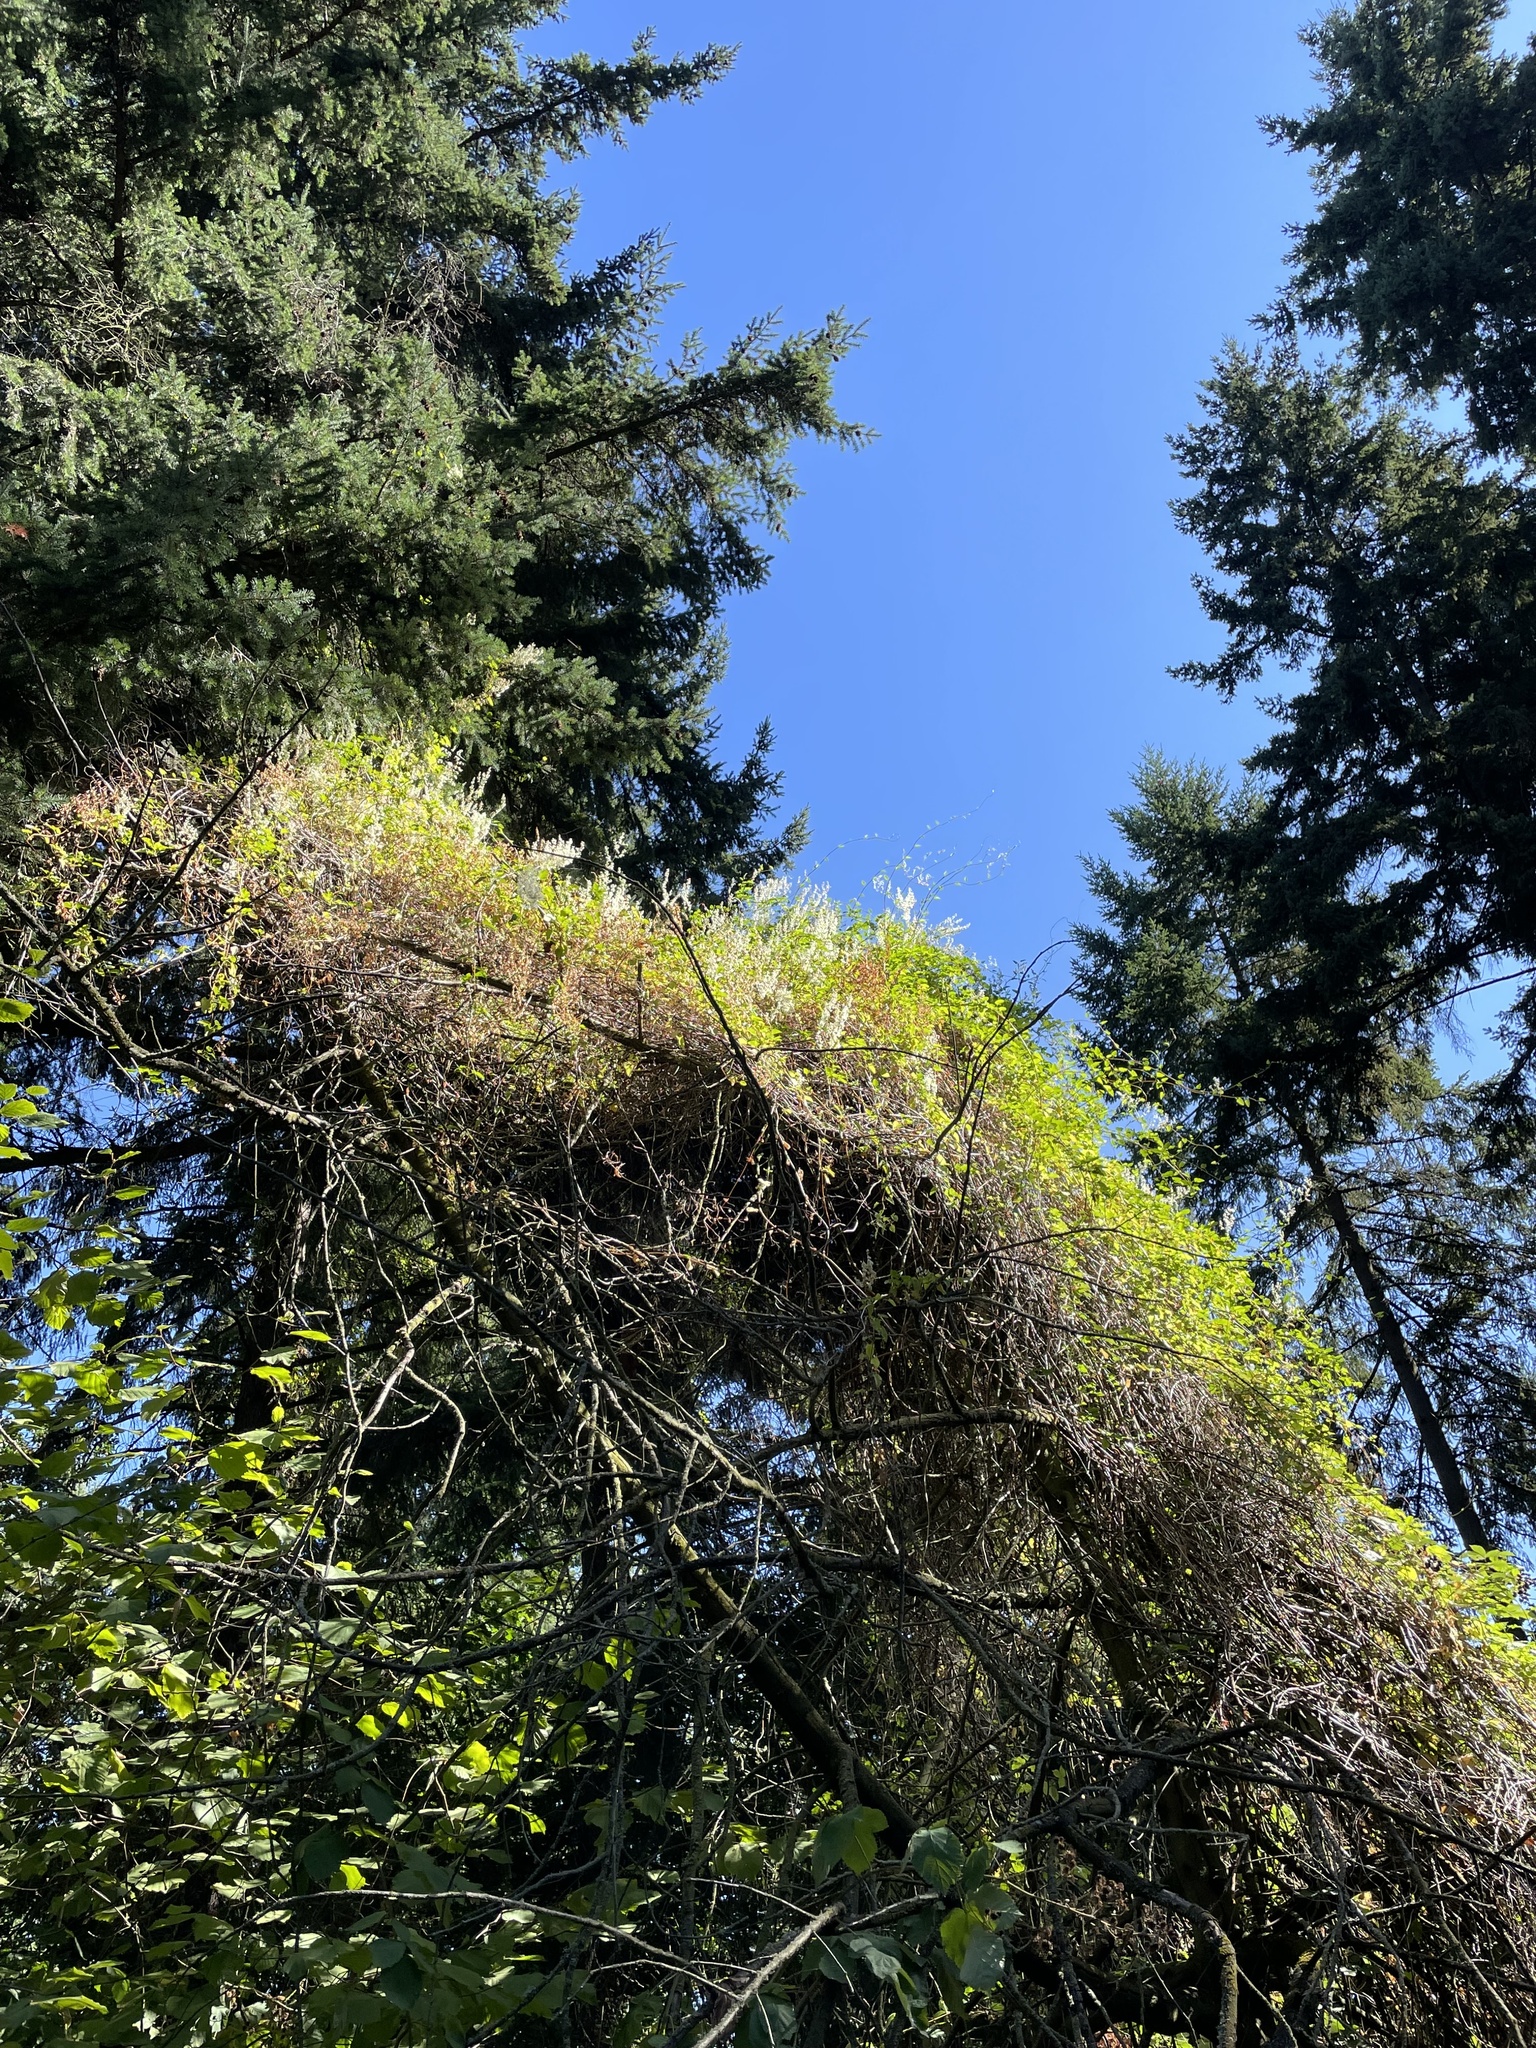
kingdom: Plantae
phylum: Tracheophyta
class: Magnoliopsida
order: Caryophyllales
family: Polygonaceae
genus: Fallopia
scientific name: Fallopia baldschuanica
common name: Russian-vine
